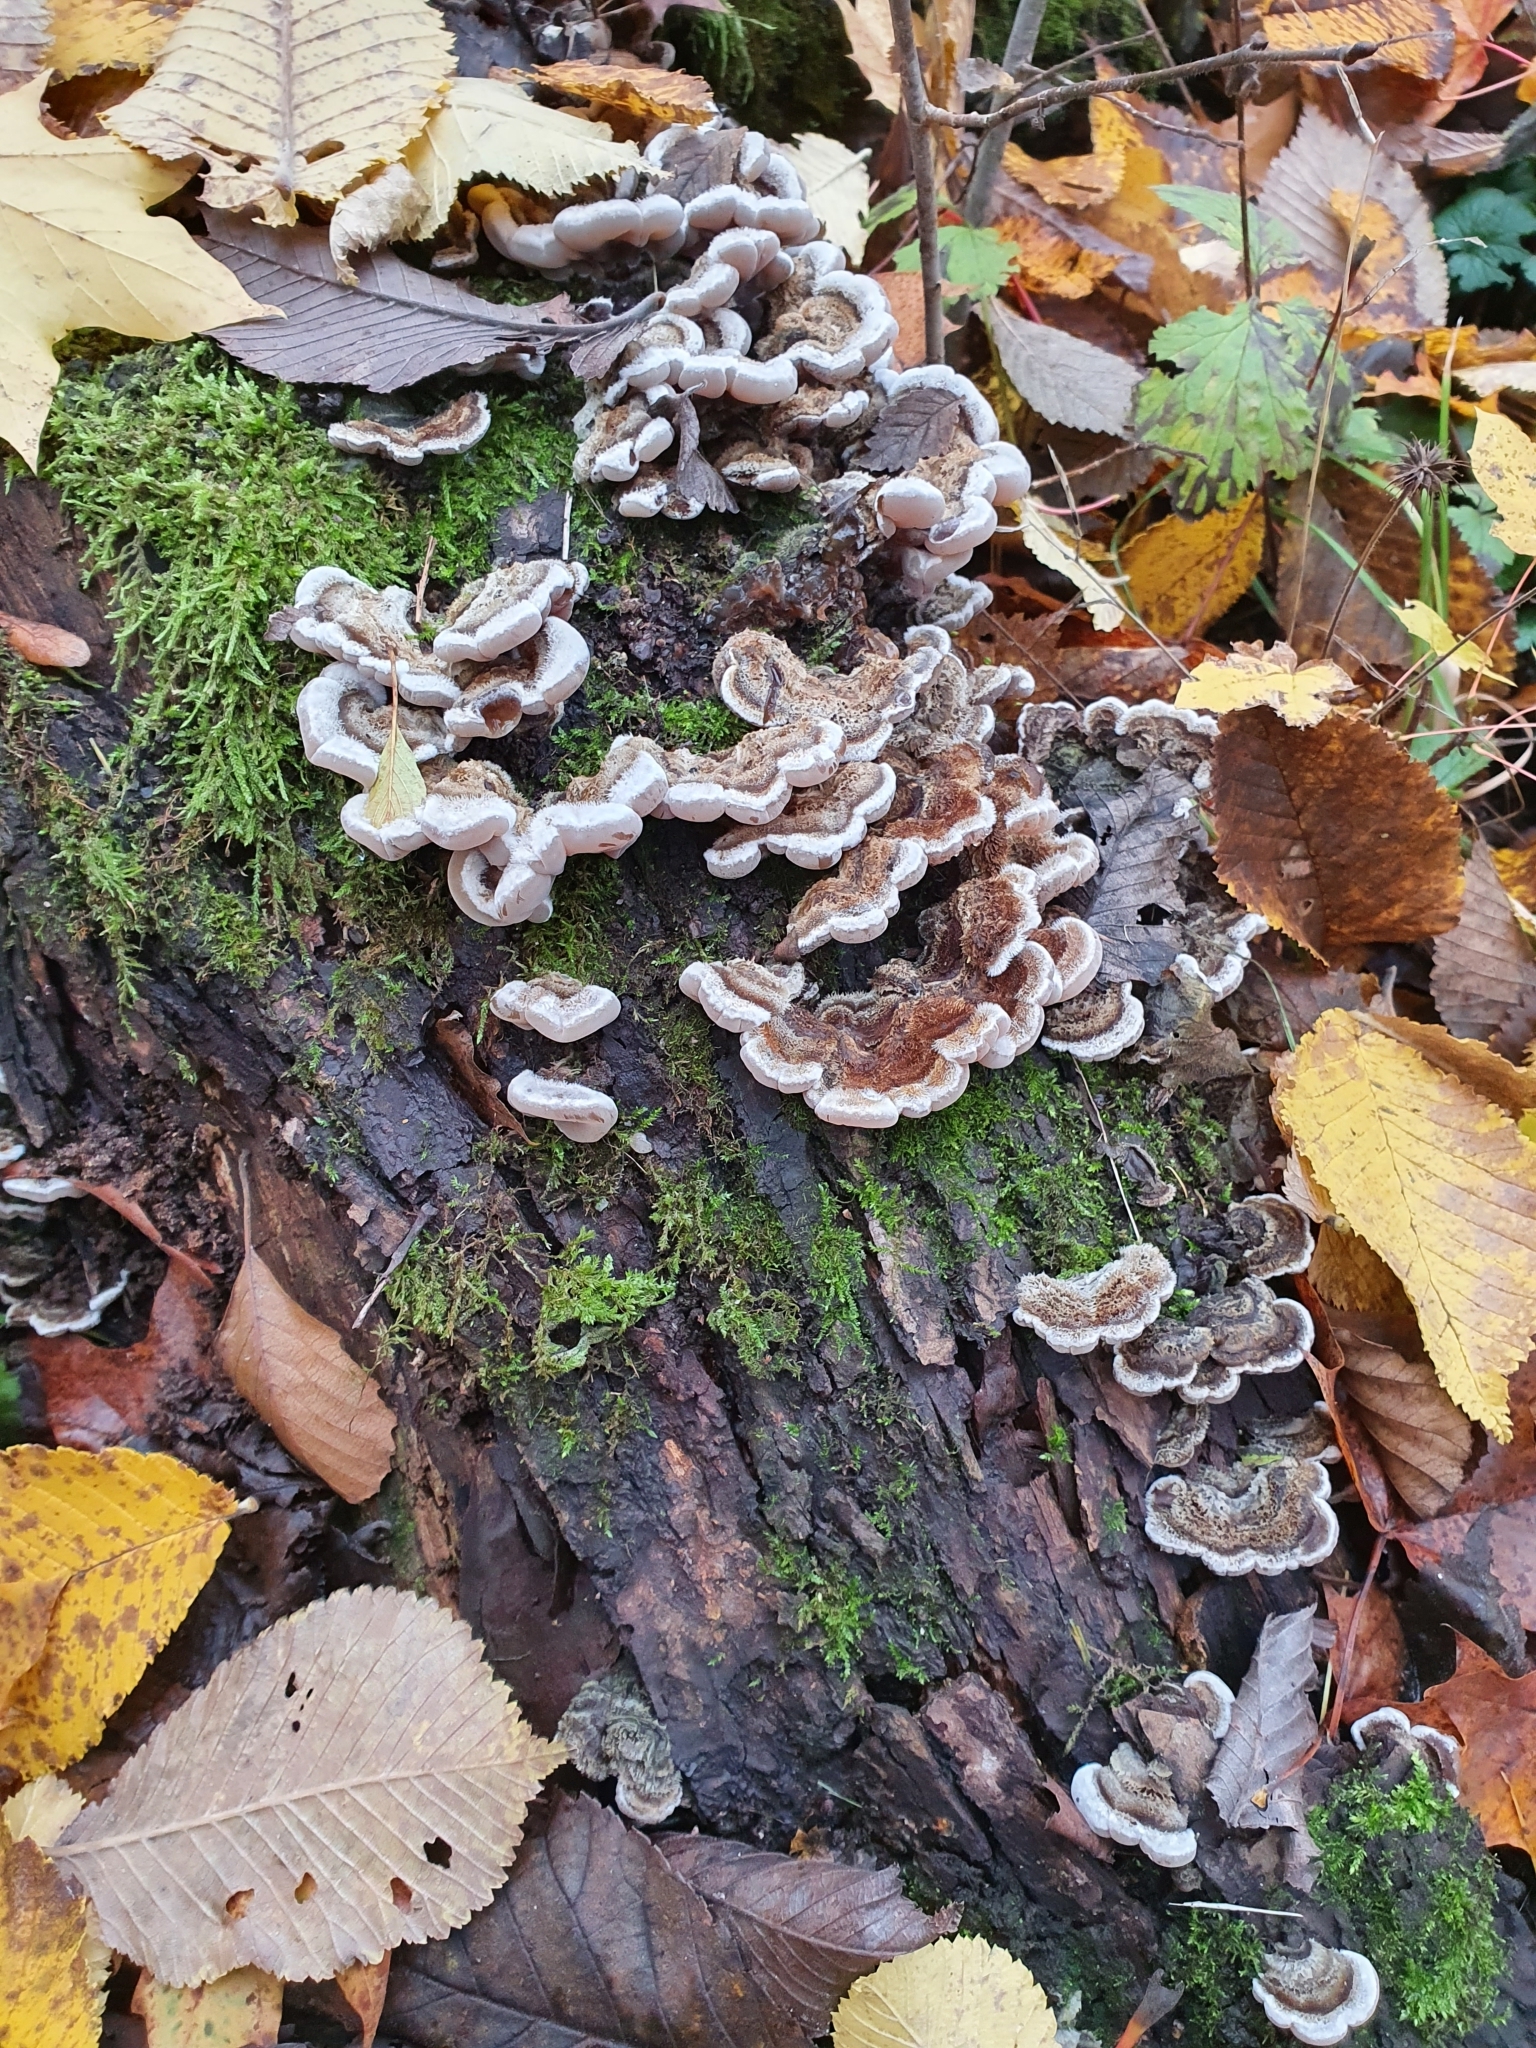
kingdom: Fungi
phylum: Basidiomycota
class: Agaricomycetes
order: Auriculariales
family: Auriculariaceae
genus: Auricularia
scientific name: Auricularia mesenterica
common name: Tripe fungus
